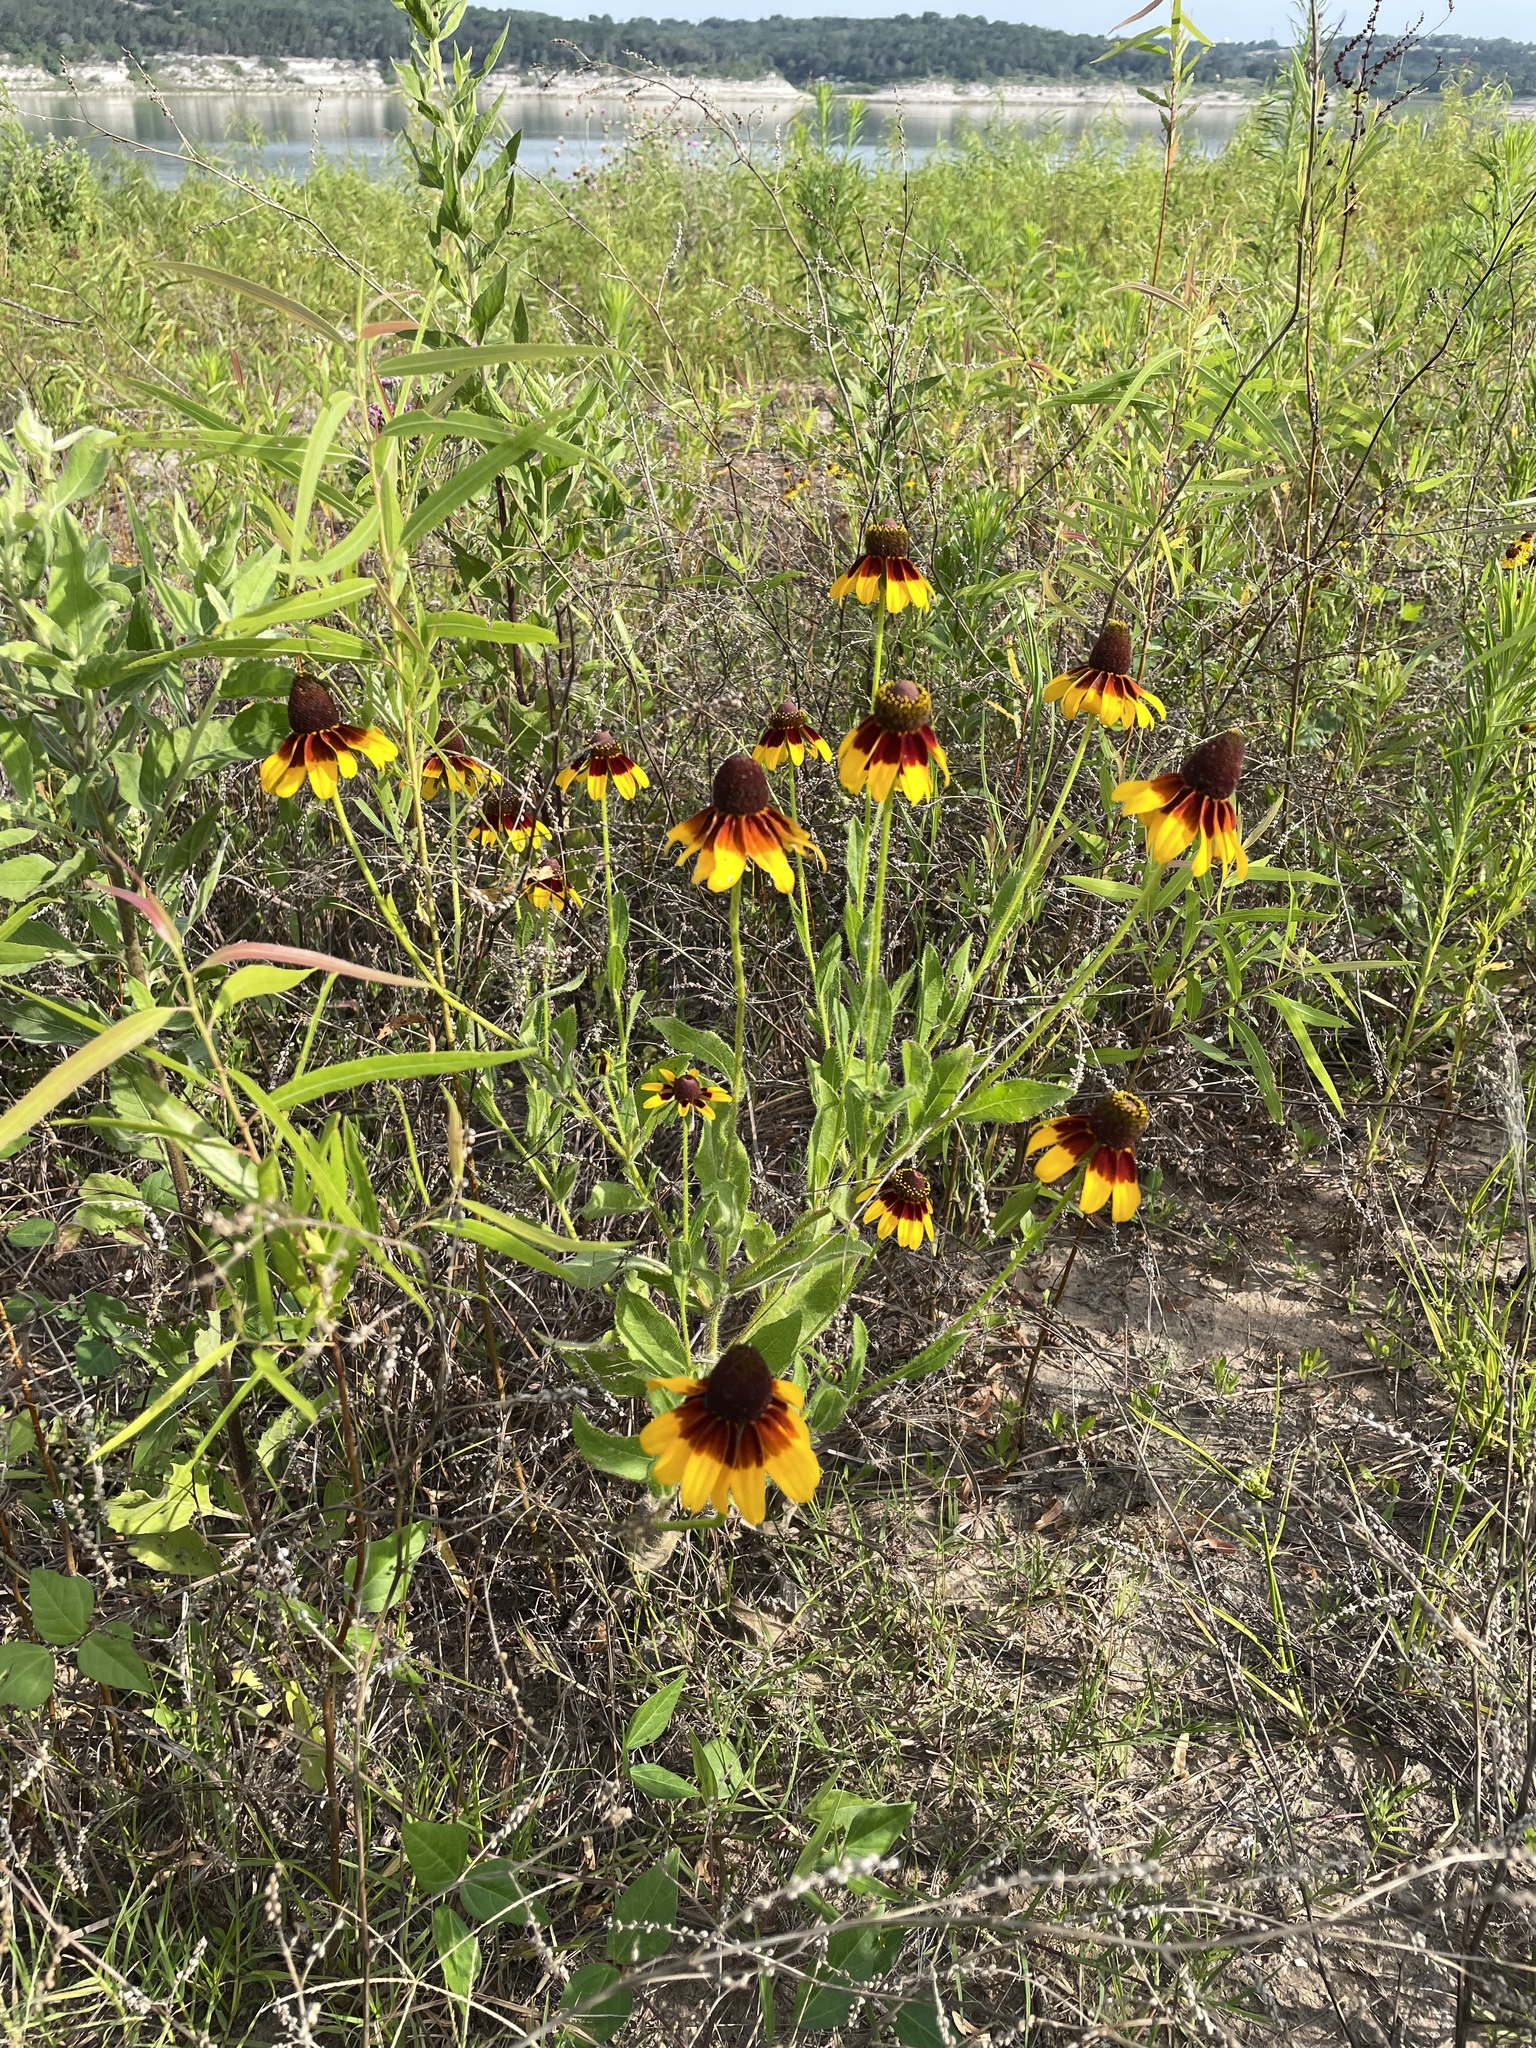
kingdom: Plantae
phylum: Tracheophyta
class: Magnoliopsida
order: Asterales
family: Asteraceae
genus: Rudbeckia
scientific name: Rudbeckia hirta
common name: Black-eyed-susan
